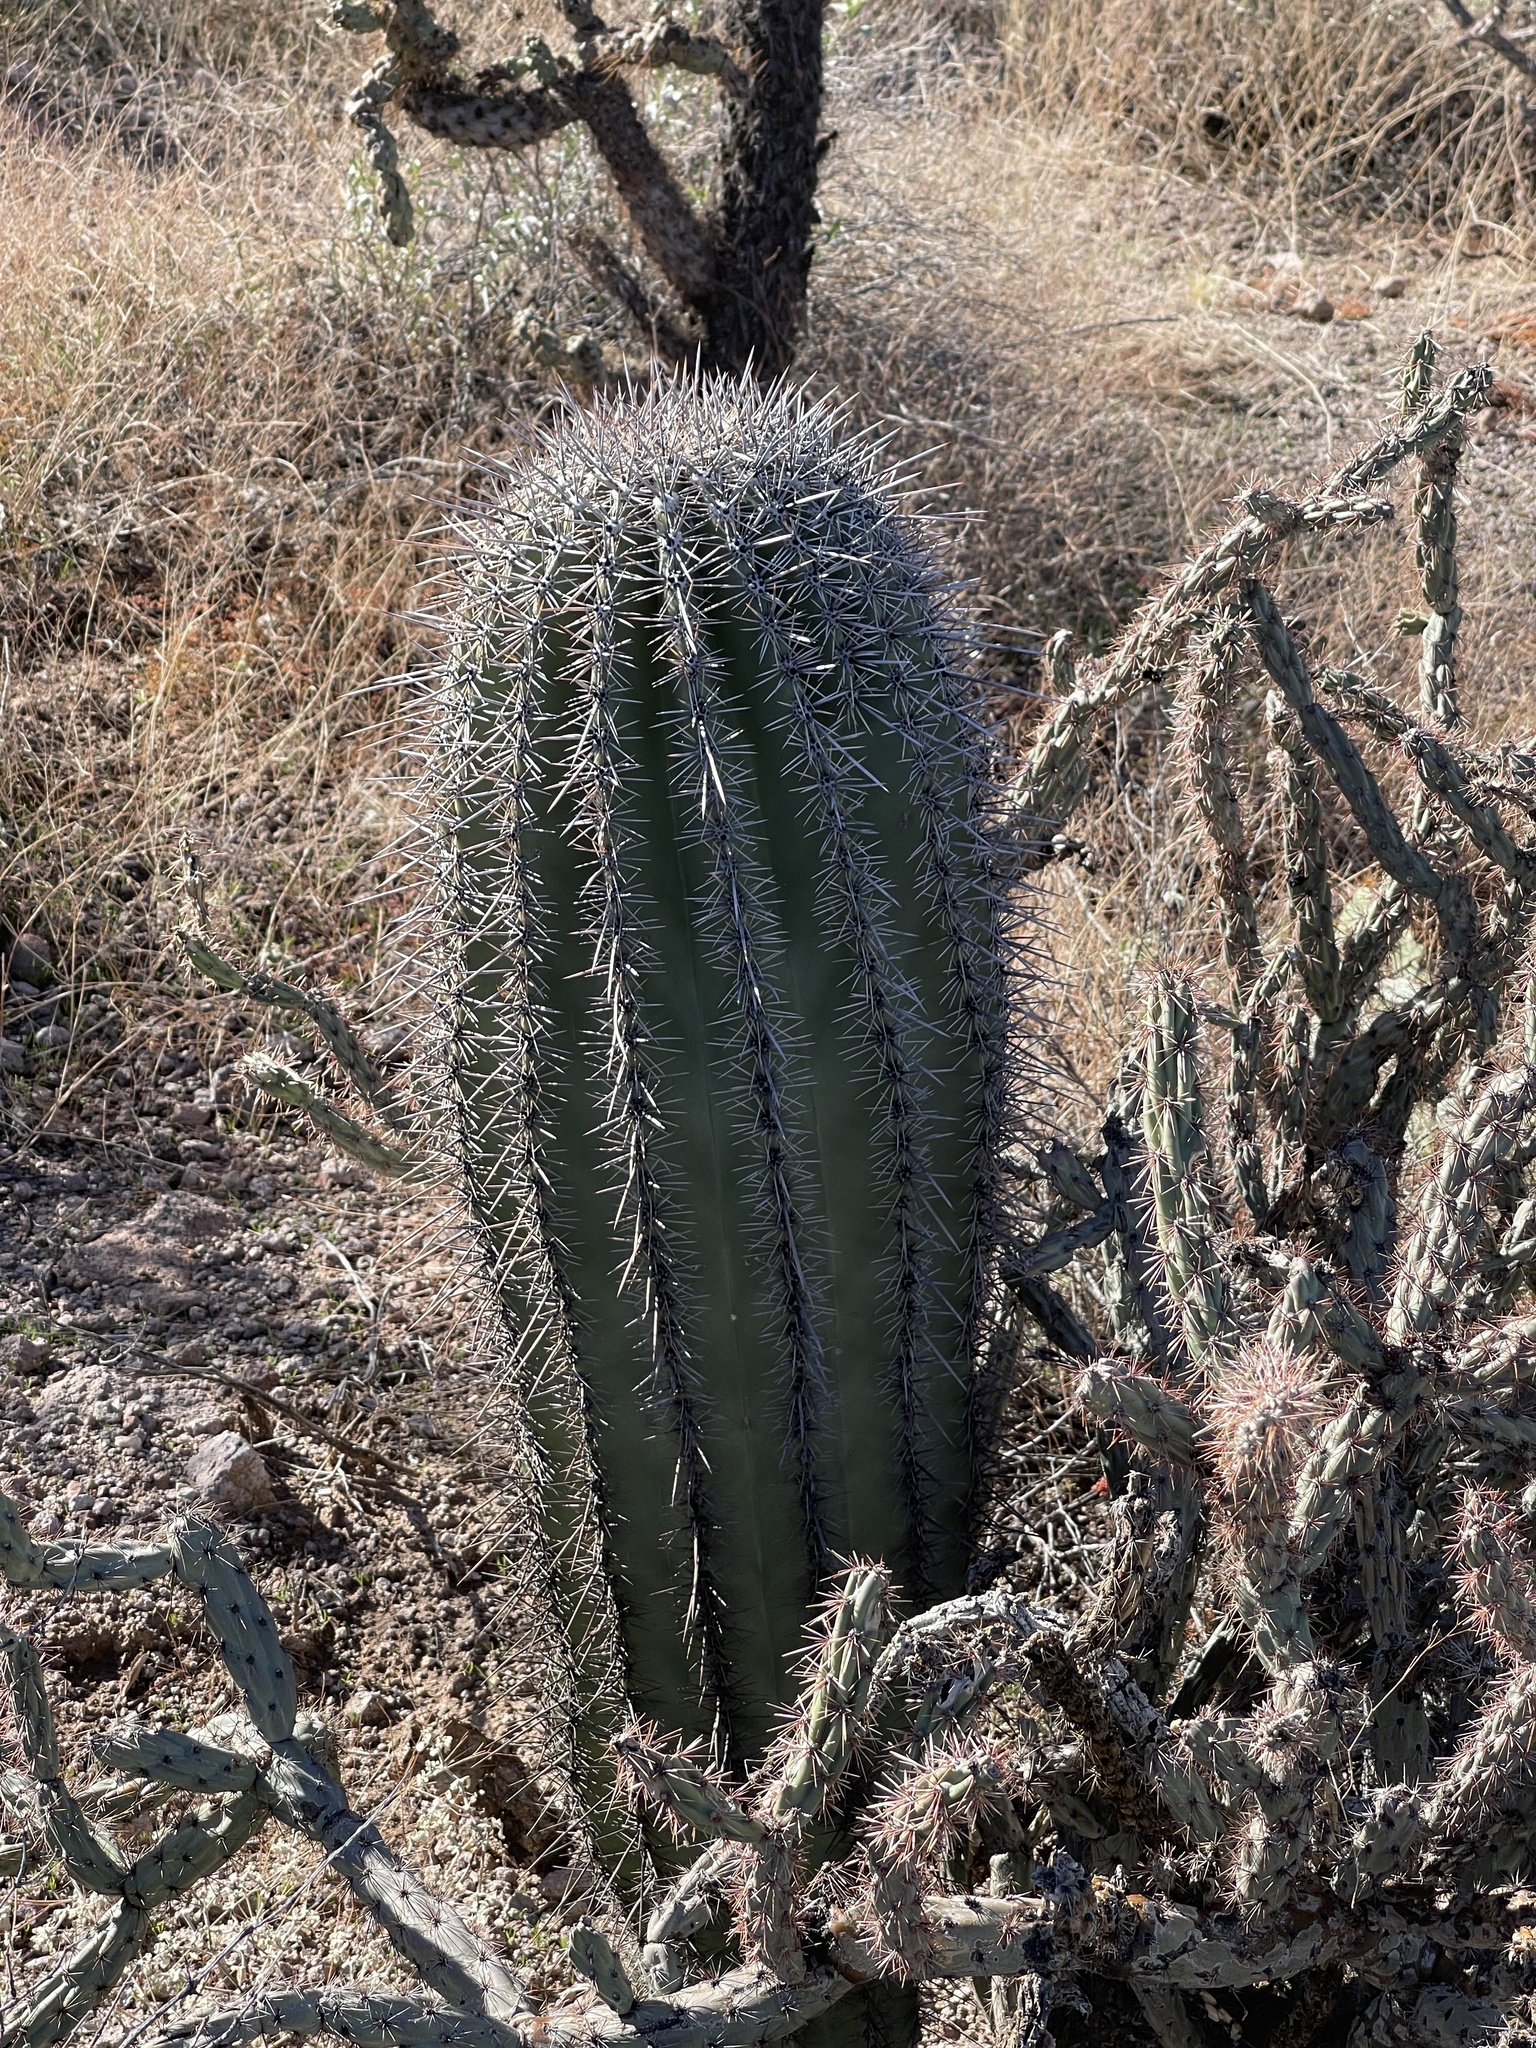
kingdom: Plantae
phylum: Tracheophyta
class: Magnoliopsida
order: Caryophyllales
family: Cactaceae
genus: Carnegiea
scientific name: Carnegiea gigantea
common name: Saguaro
